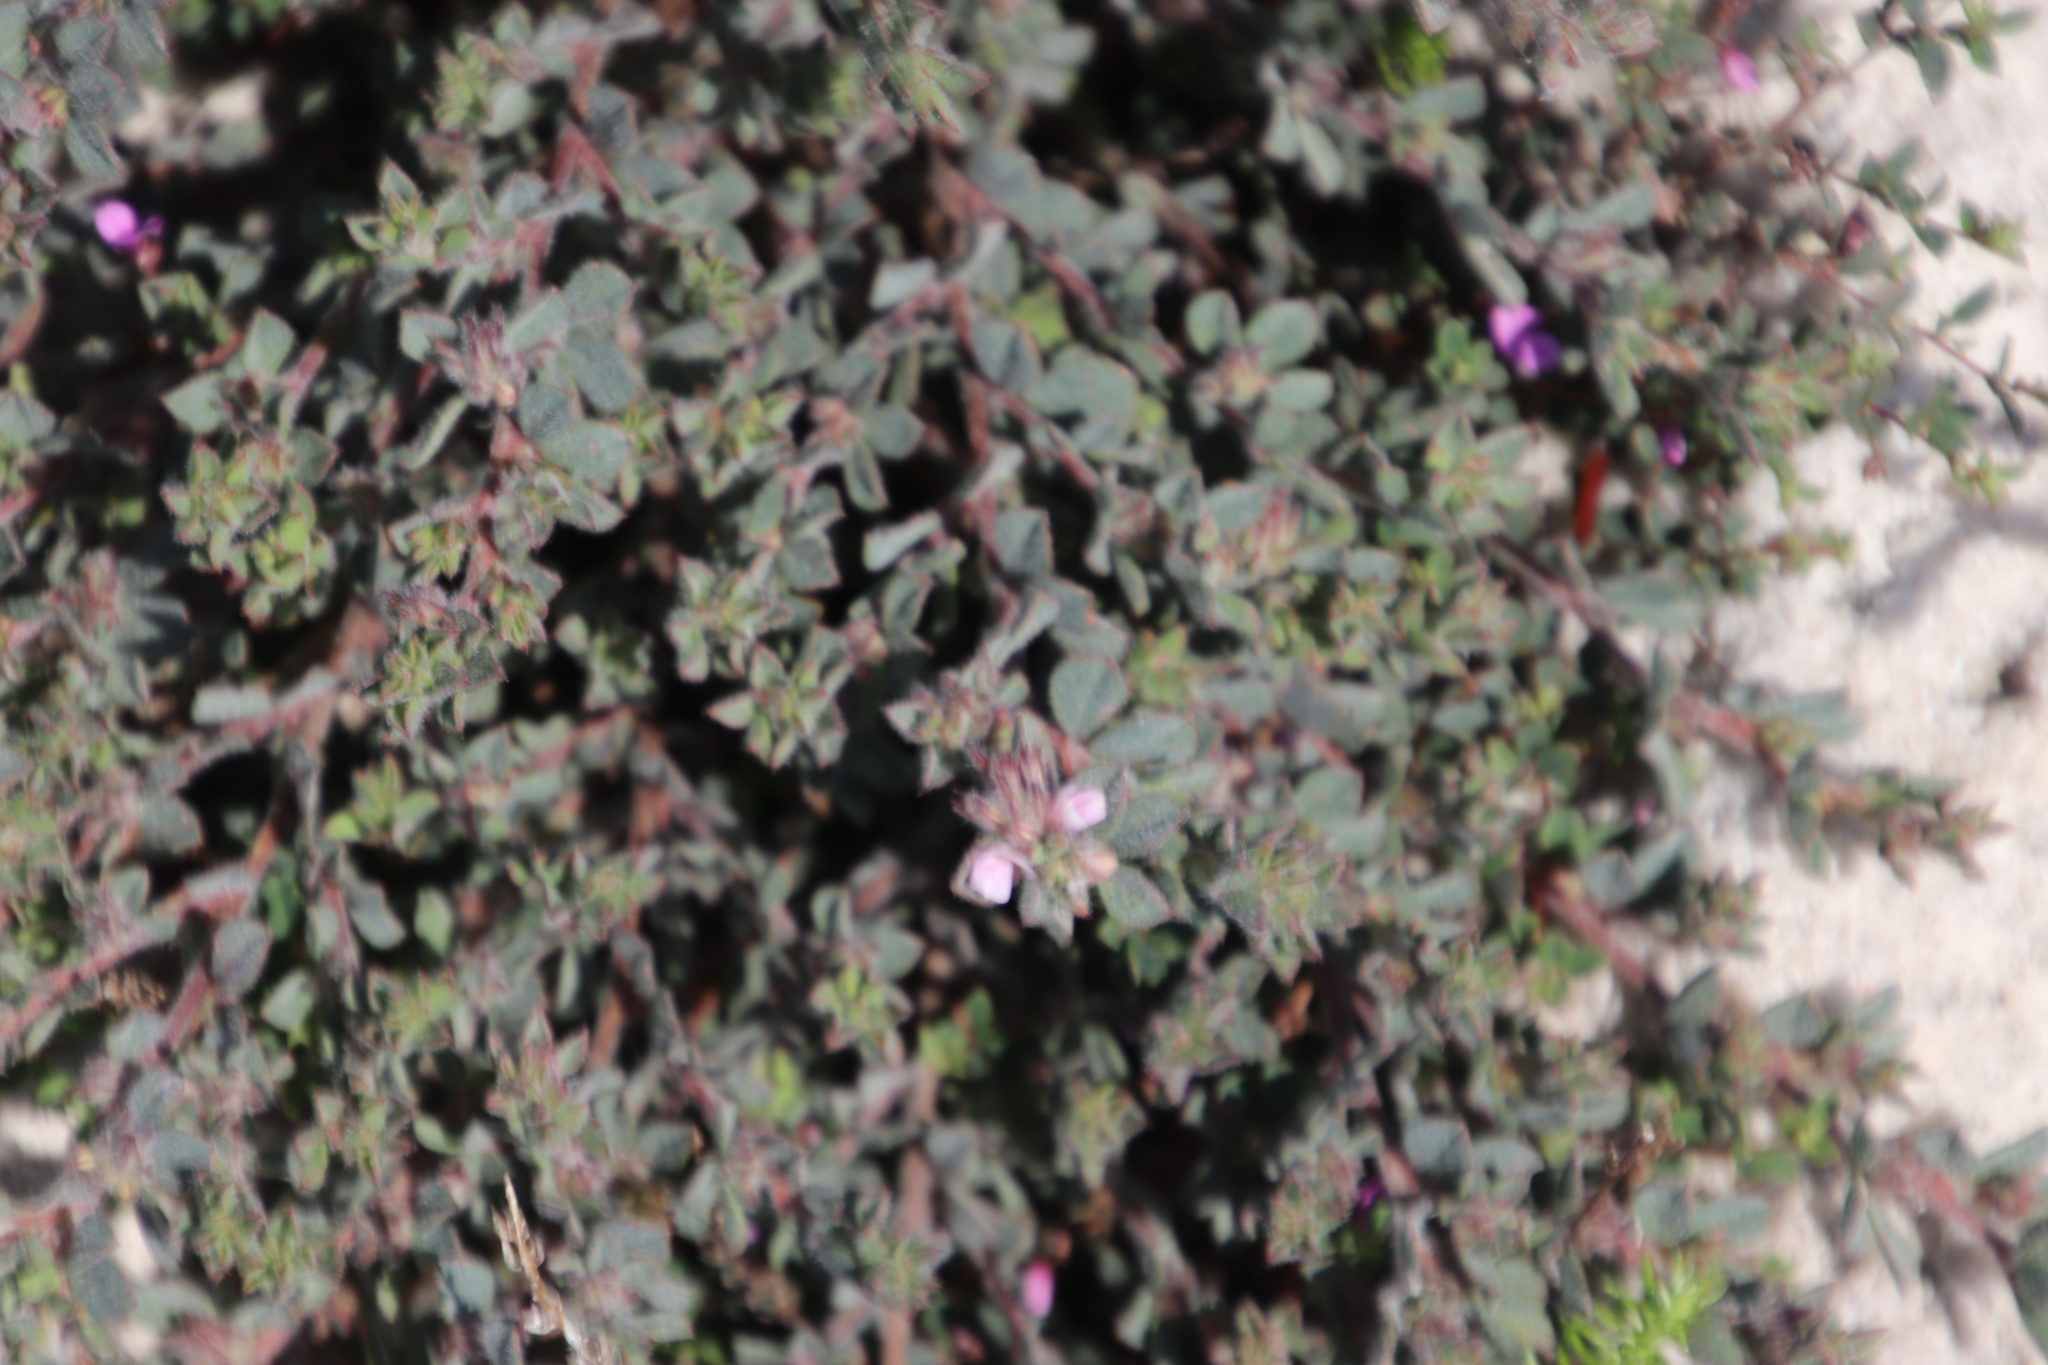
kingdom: Plantae
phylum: Tracheophyta
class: Magnoliopsida
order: Fabales
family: Fabaceae
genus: Indigofera
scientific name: Indigofera glomerata
